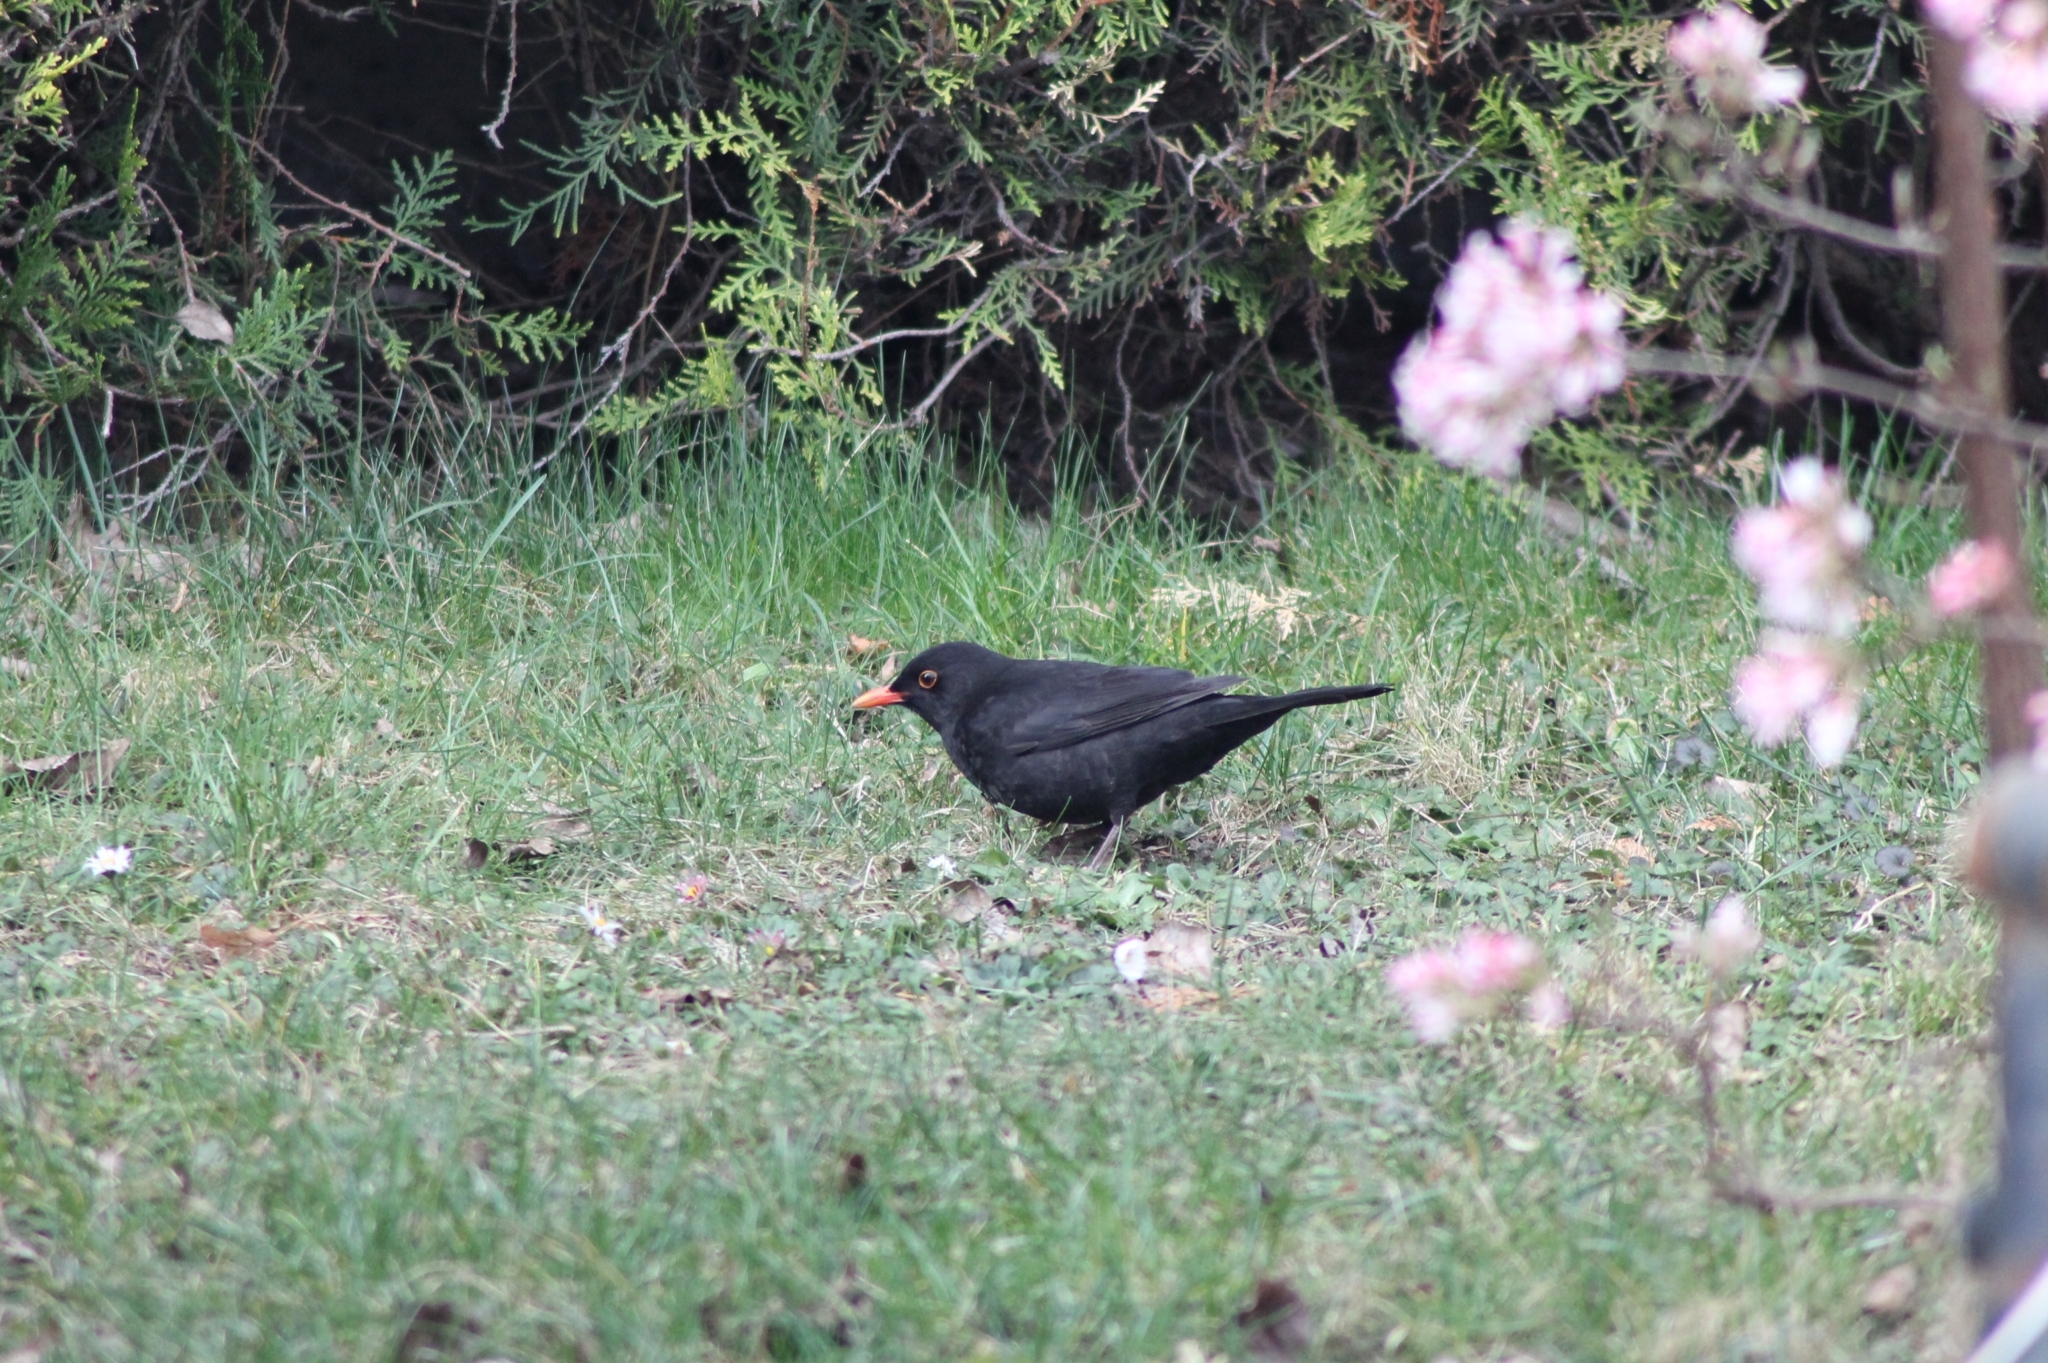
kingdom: Animalia
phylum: Chordata
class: Aves
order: Passeriformes
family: Turdidae
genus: Turdus
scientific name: Turdus merula
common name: Common blackbird
